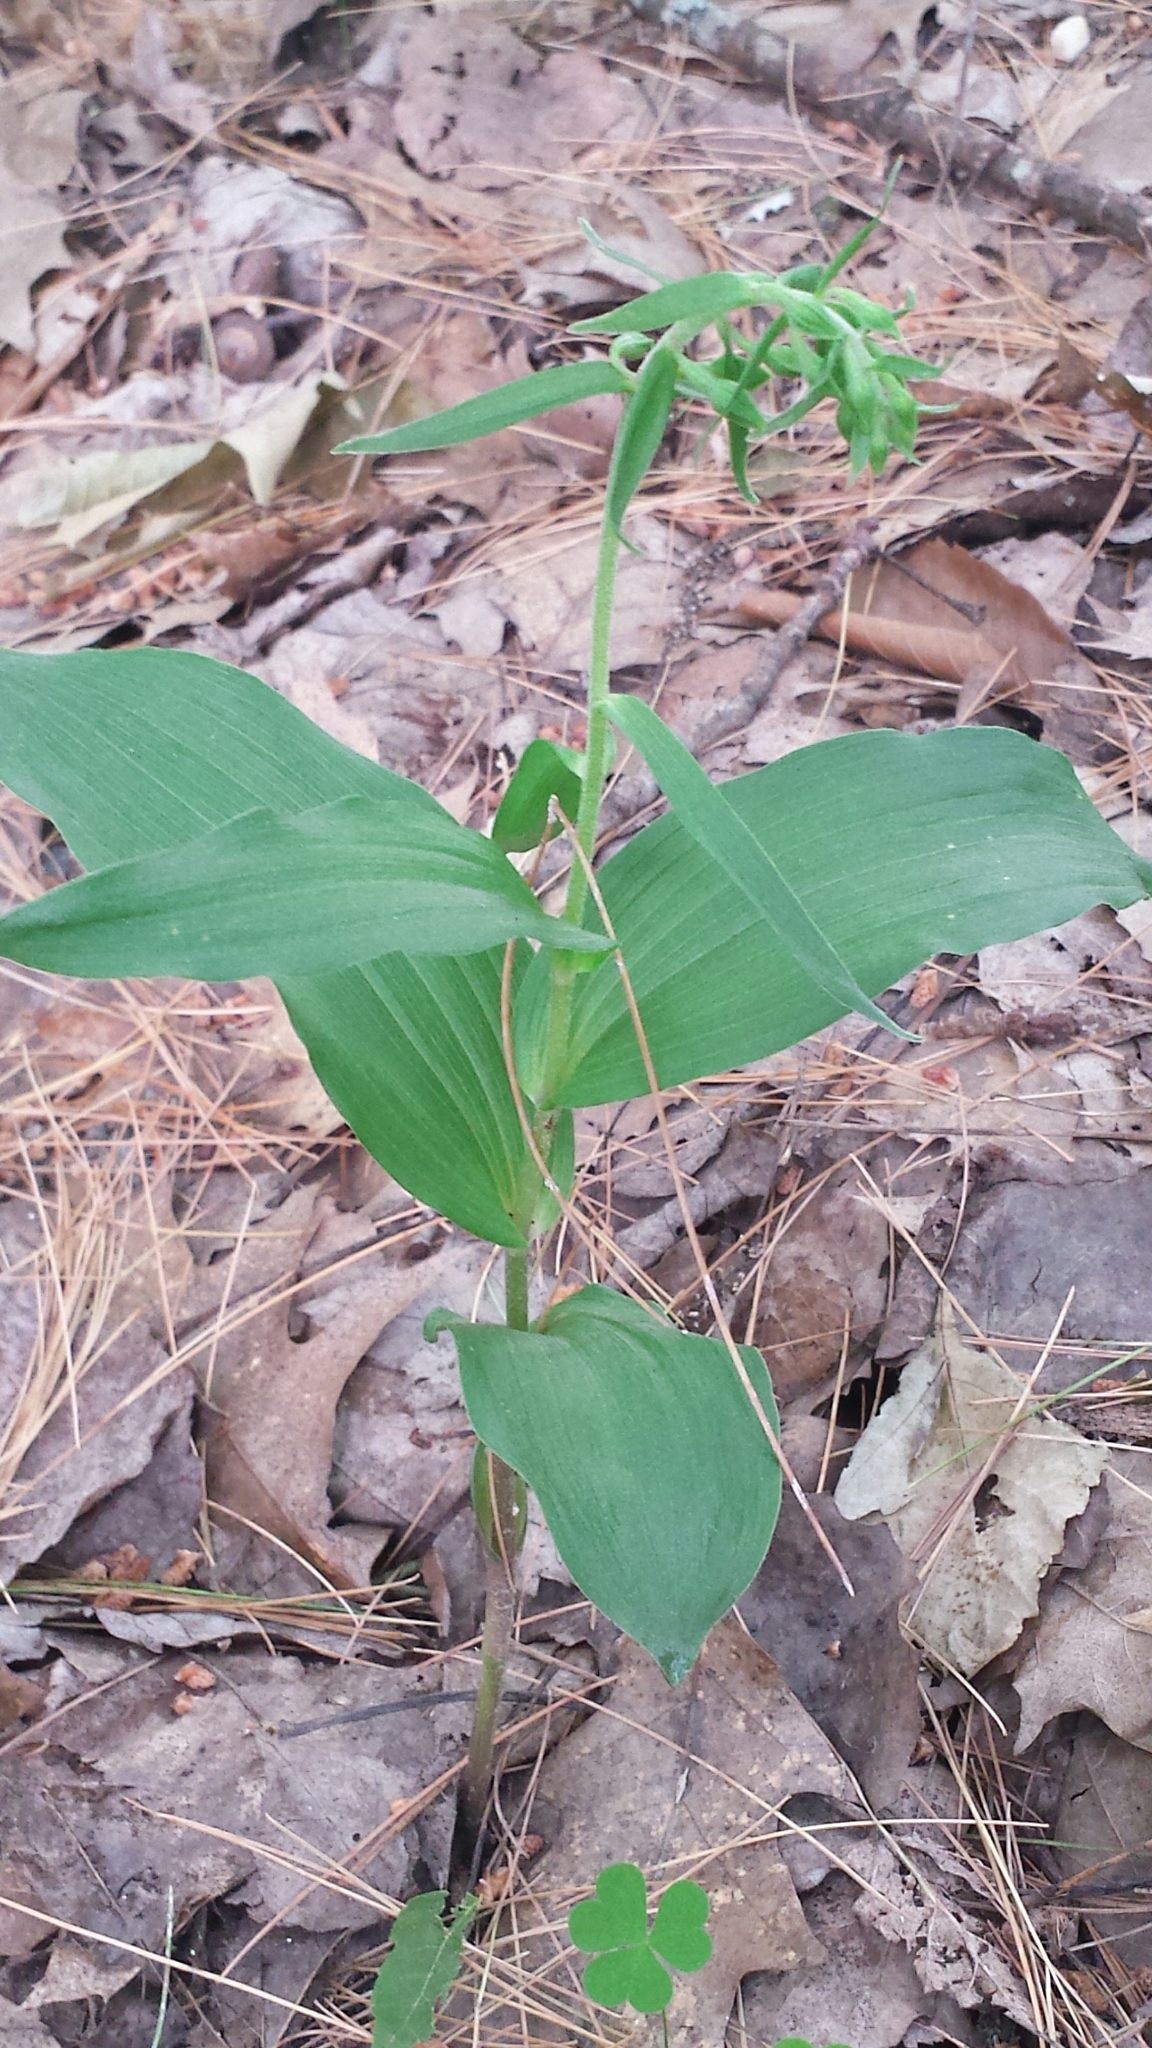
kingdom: Plantae
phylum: Tracheophyta
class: Liliopsida
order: Asparagales
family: Orchidaceae
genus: Epipactis
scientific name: Epipactis helleborine
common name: Broad-leaved helleborine
